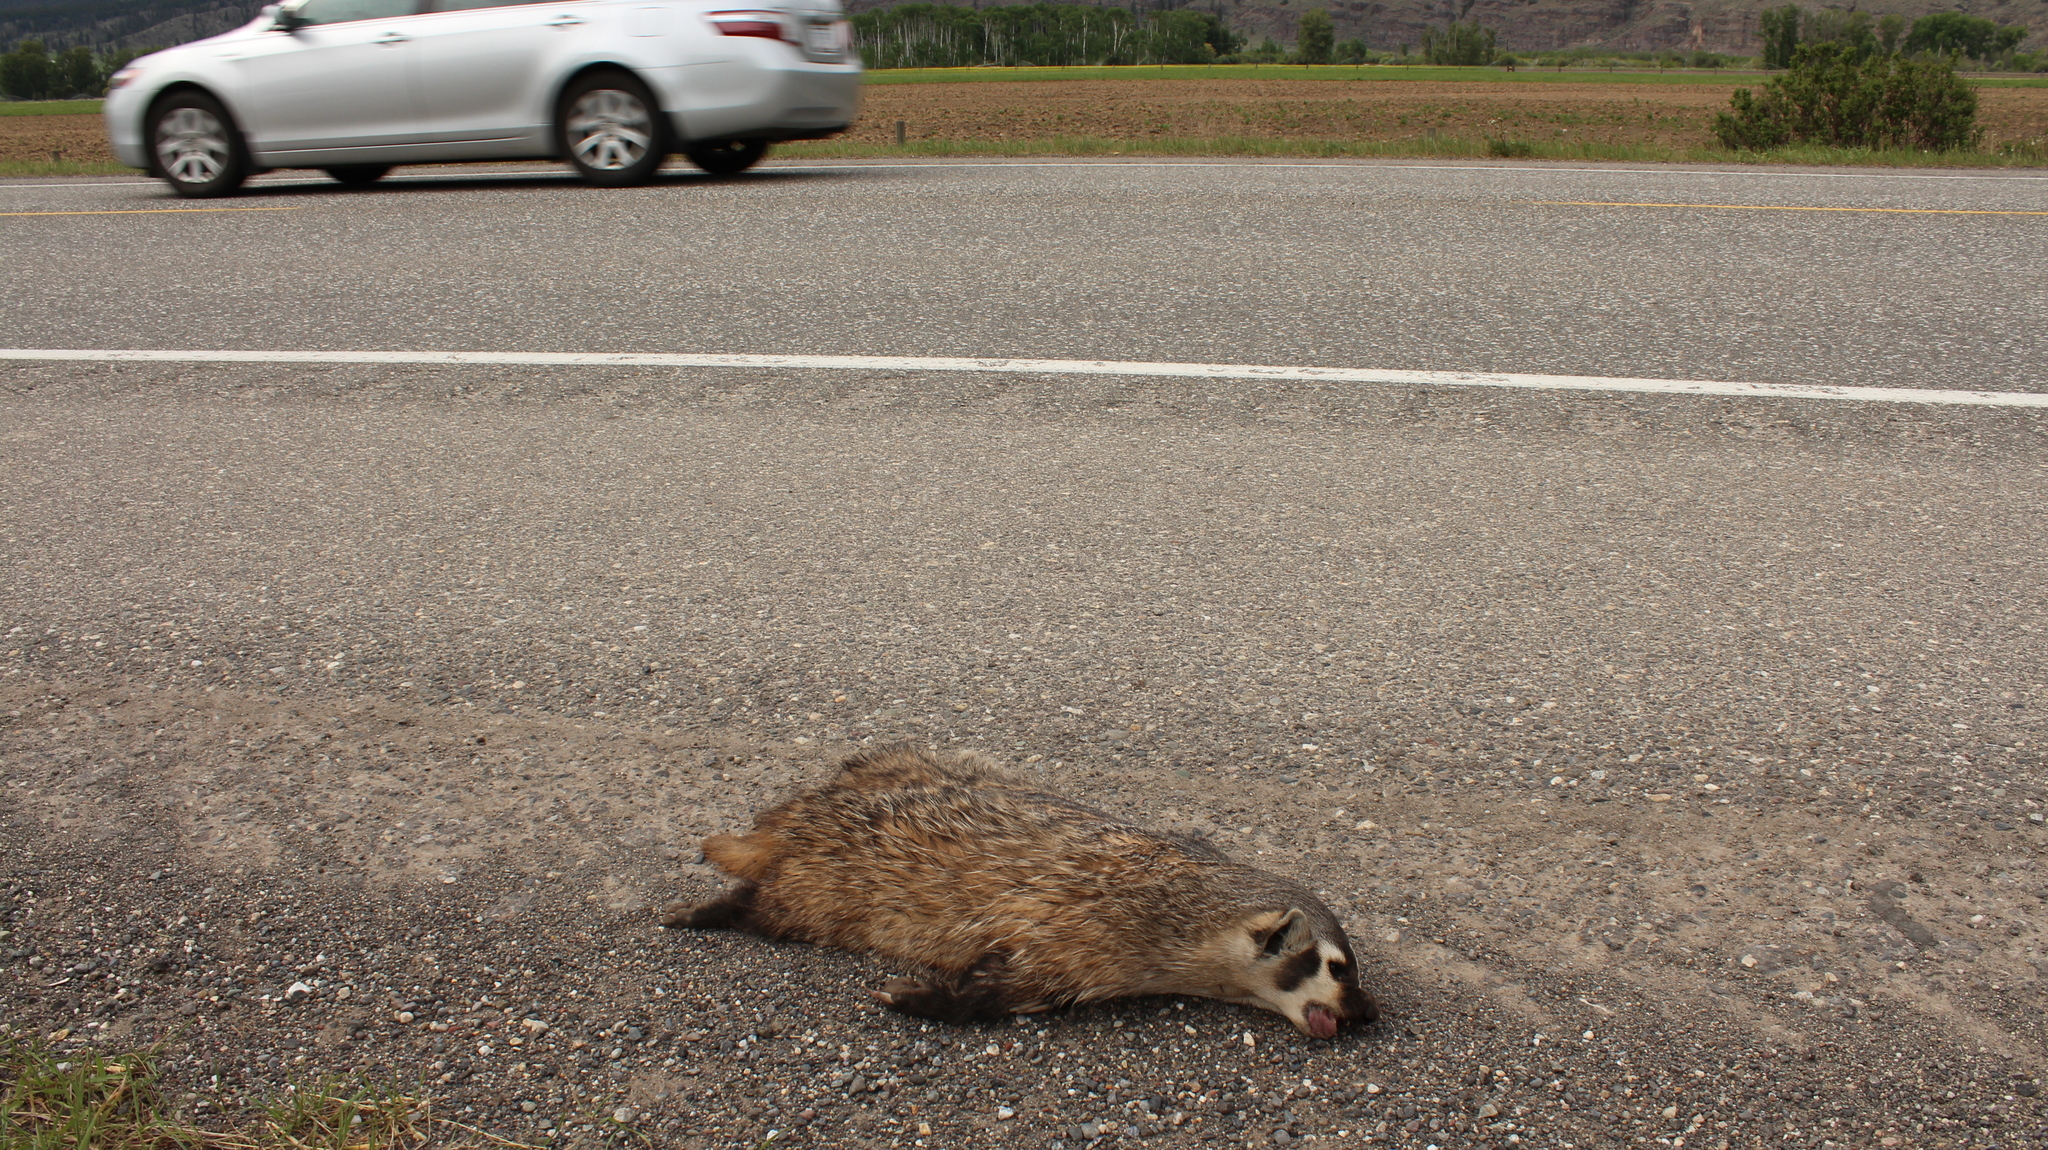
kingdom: Animalia
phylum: Chordata
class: Mammalia
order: Carnivora
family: Mustelidae
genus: Taxidea
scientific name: Taxidea taxus
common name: American badger
